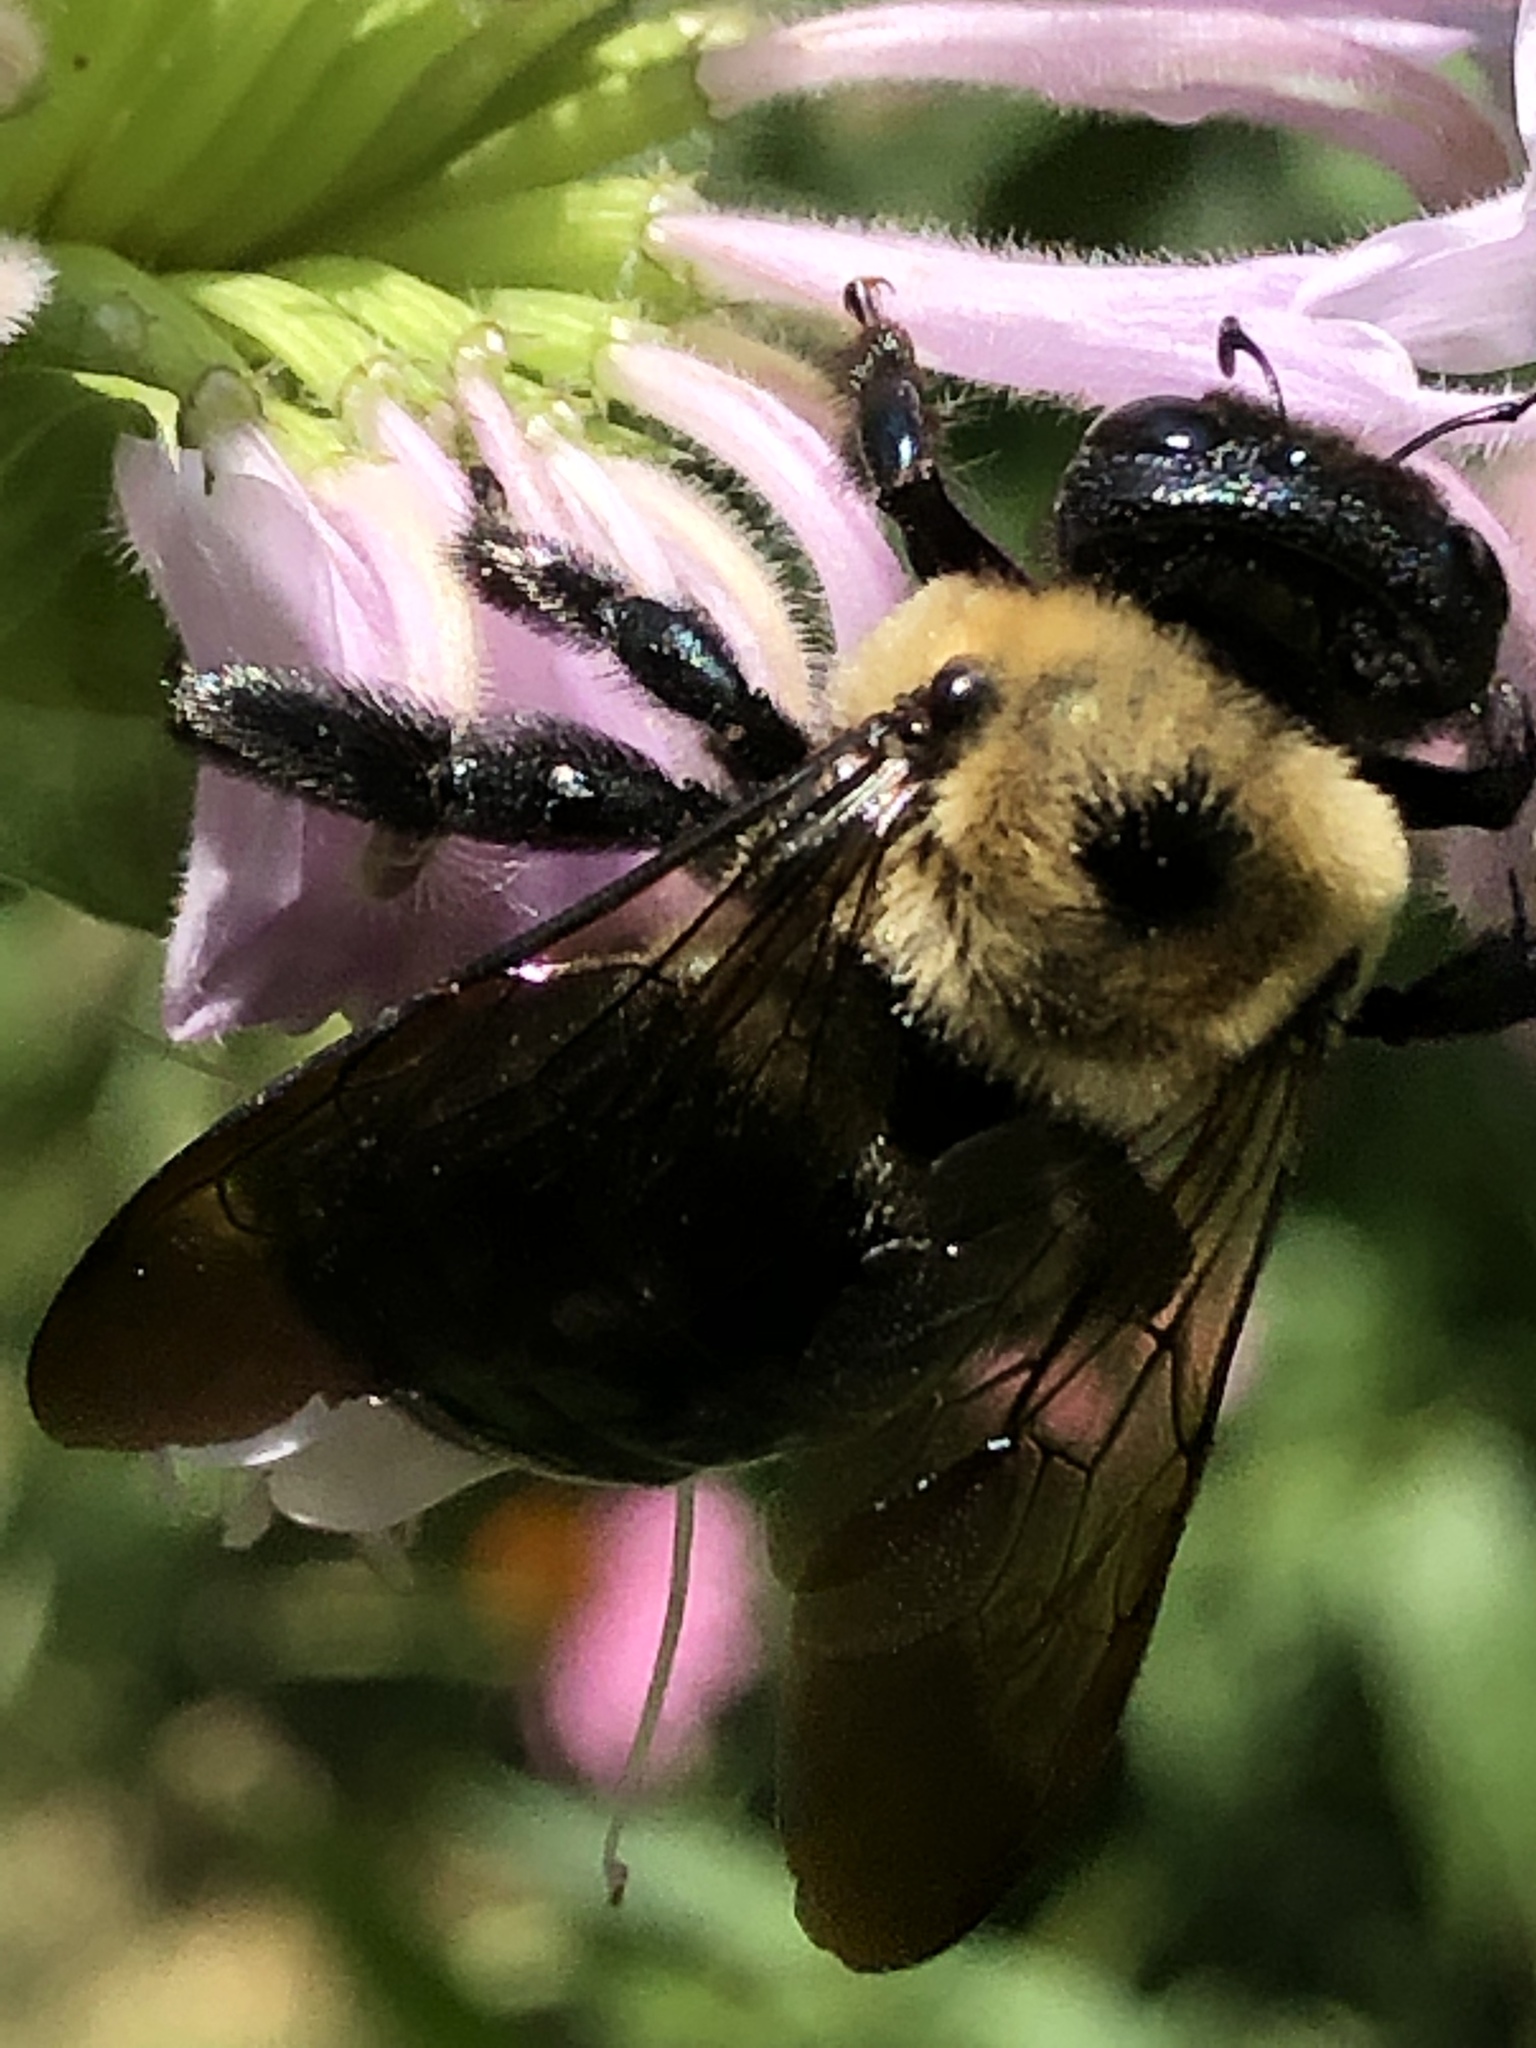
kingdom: Animalia
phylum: Arthropoda
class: Insecta
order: Hymenoptera
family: Apidae
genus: Xylocopa
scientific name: Xylocopa virginica
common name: Carpenter bee
